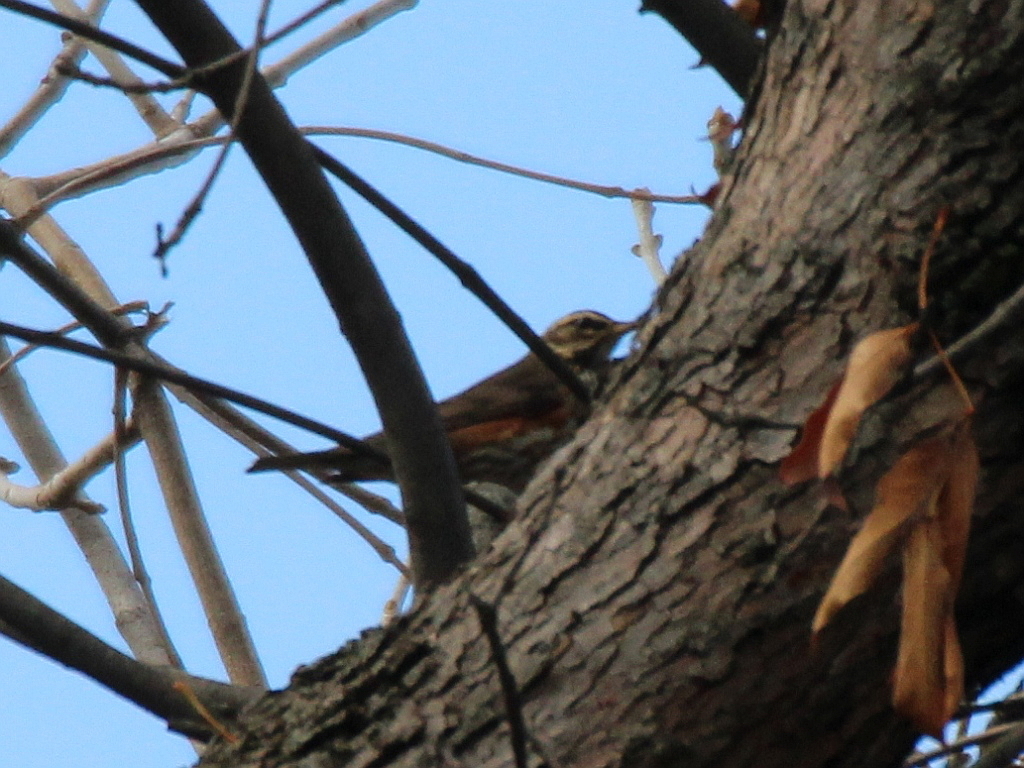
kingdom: Animalia
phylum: Chordata
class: Aves
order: Passeriformes
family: Turdidae
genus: Turdus
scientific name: Turdus iliacus
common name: Redwing
